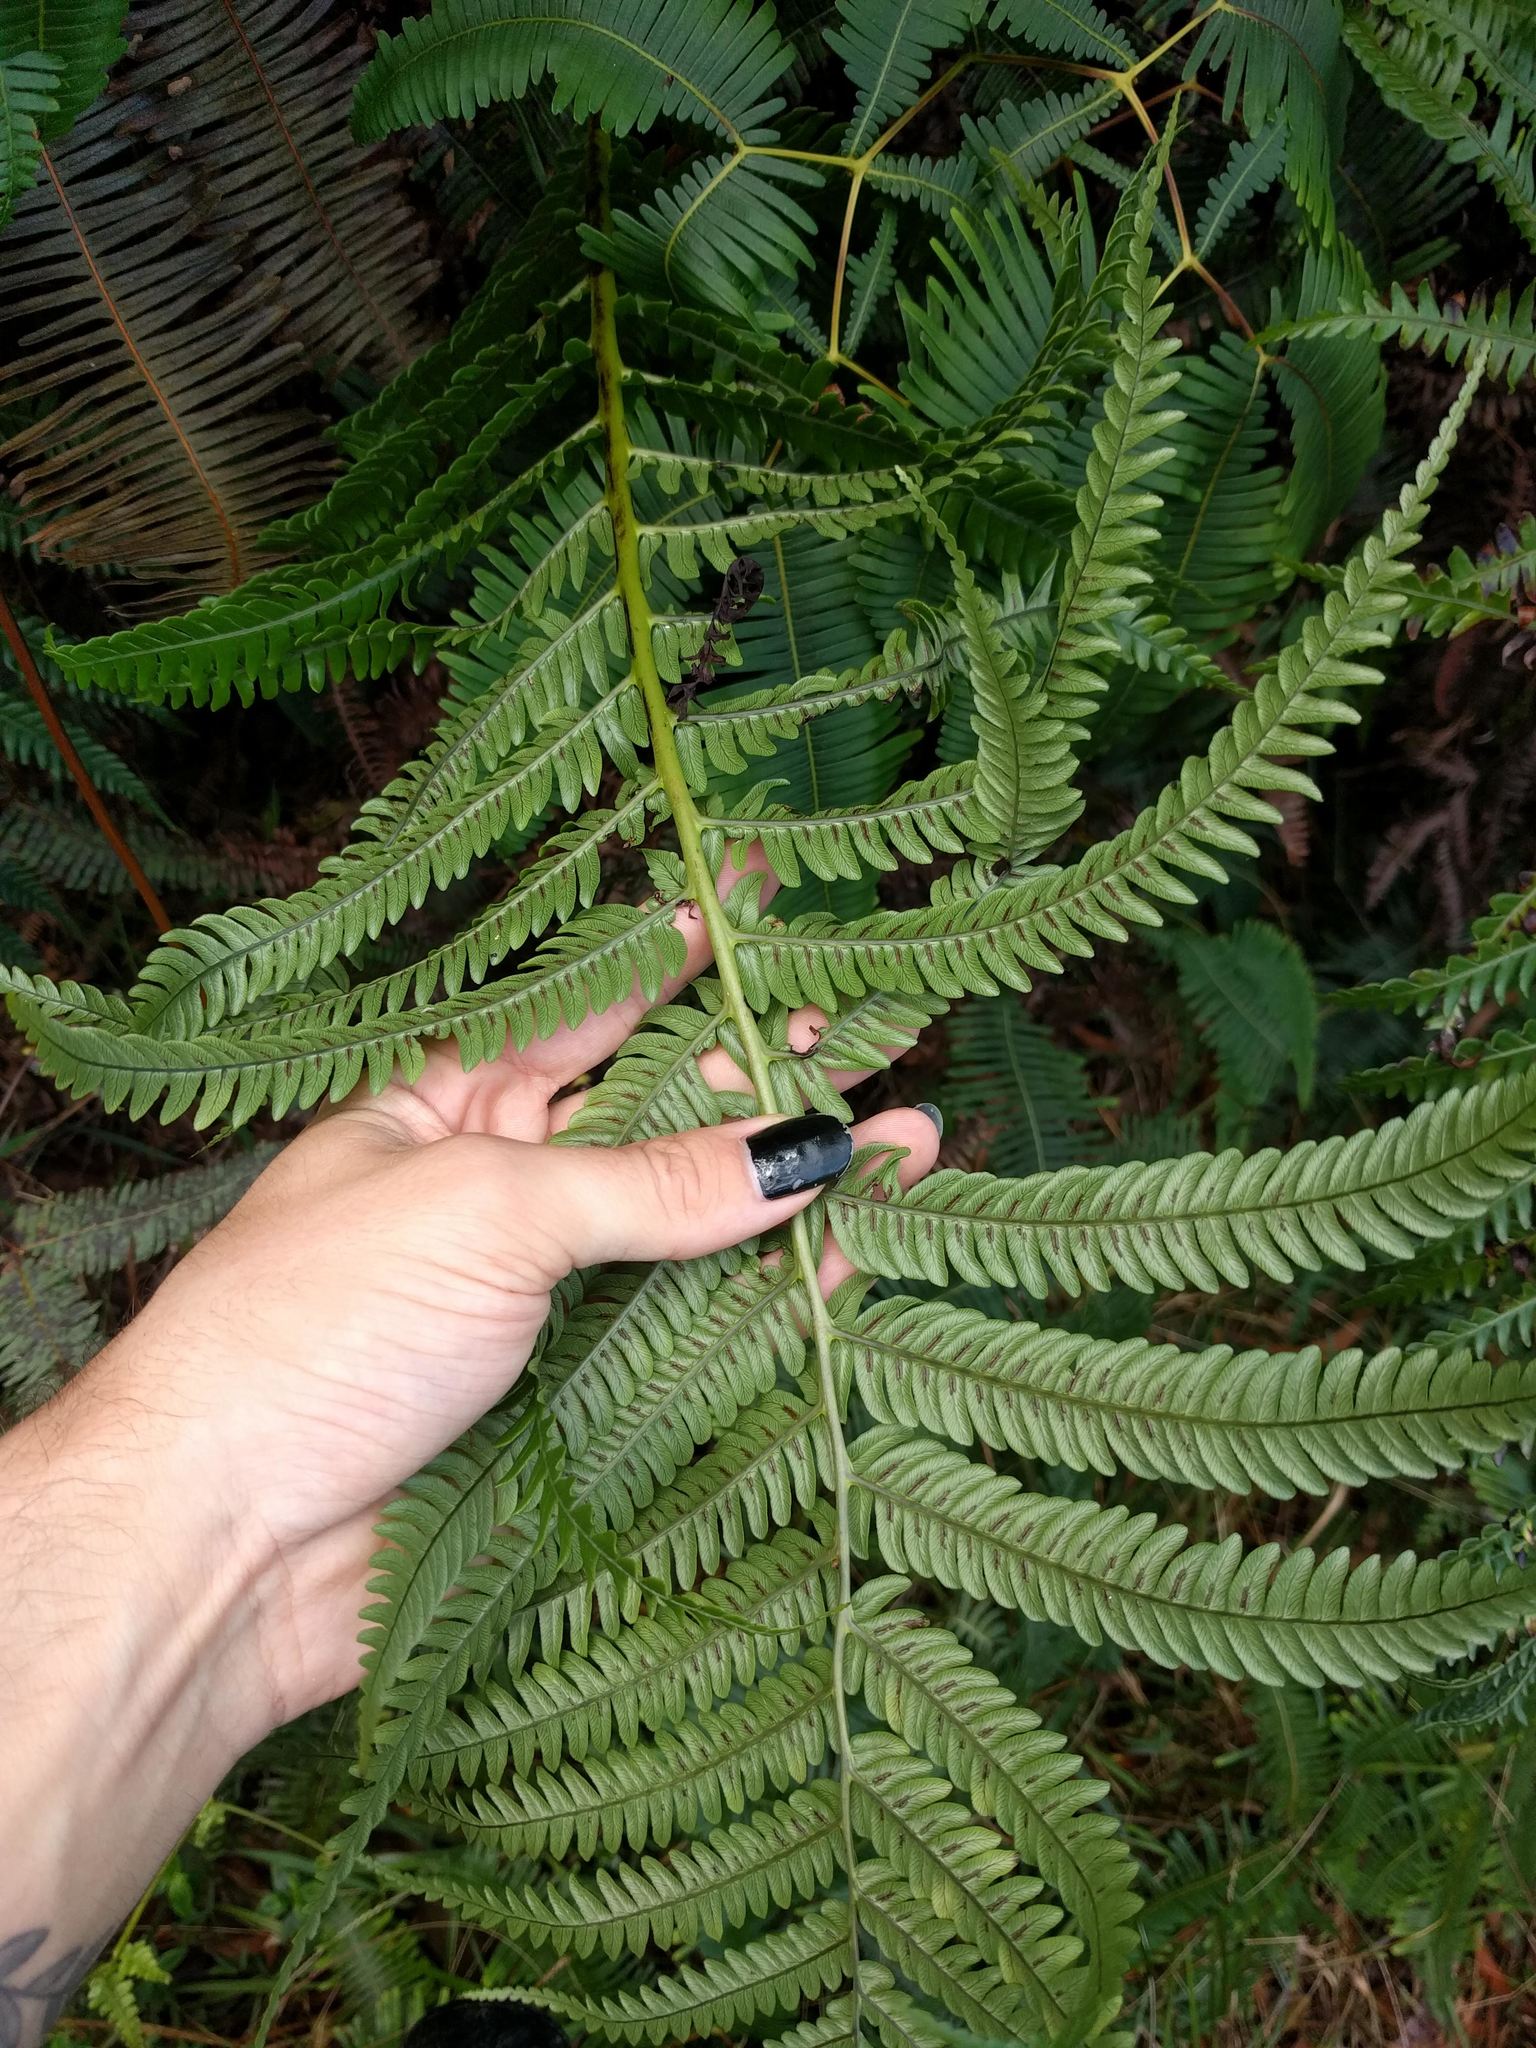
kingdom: Plantae
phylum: Tracheophyta
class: Polypodiopsida
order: Polypodiales
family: Blechnaceae
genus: Sadleria
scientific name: Sadleria pallida
